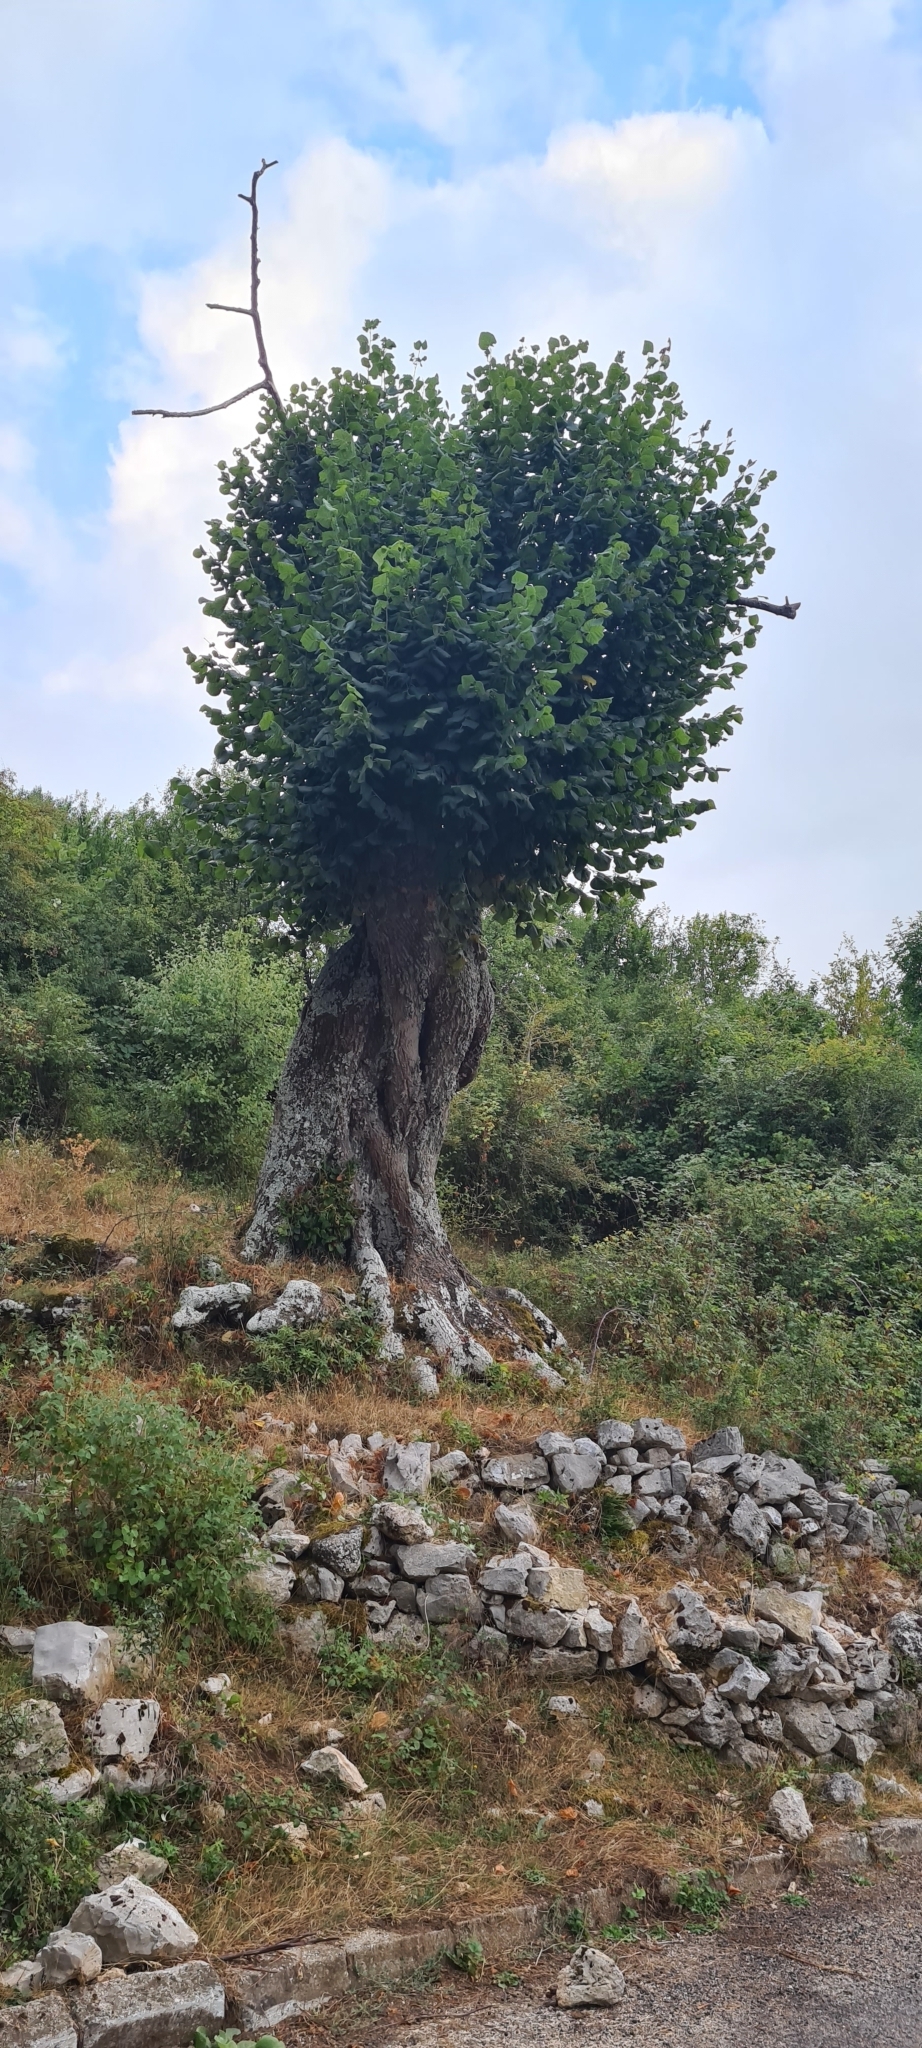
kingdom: Plantae
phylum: Tracheophyta
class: Magnoliopsida
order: Malvales
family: Malvaceae
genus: Tilia
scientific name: Tilia cordata
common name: Small-leaved lime
